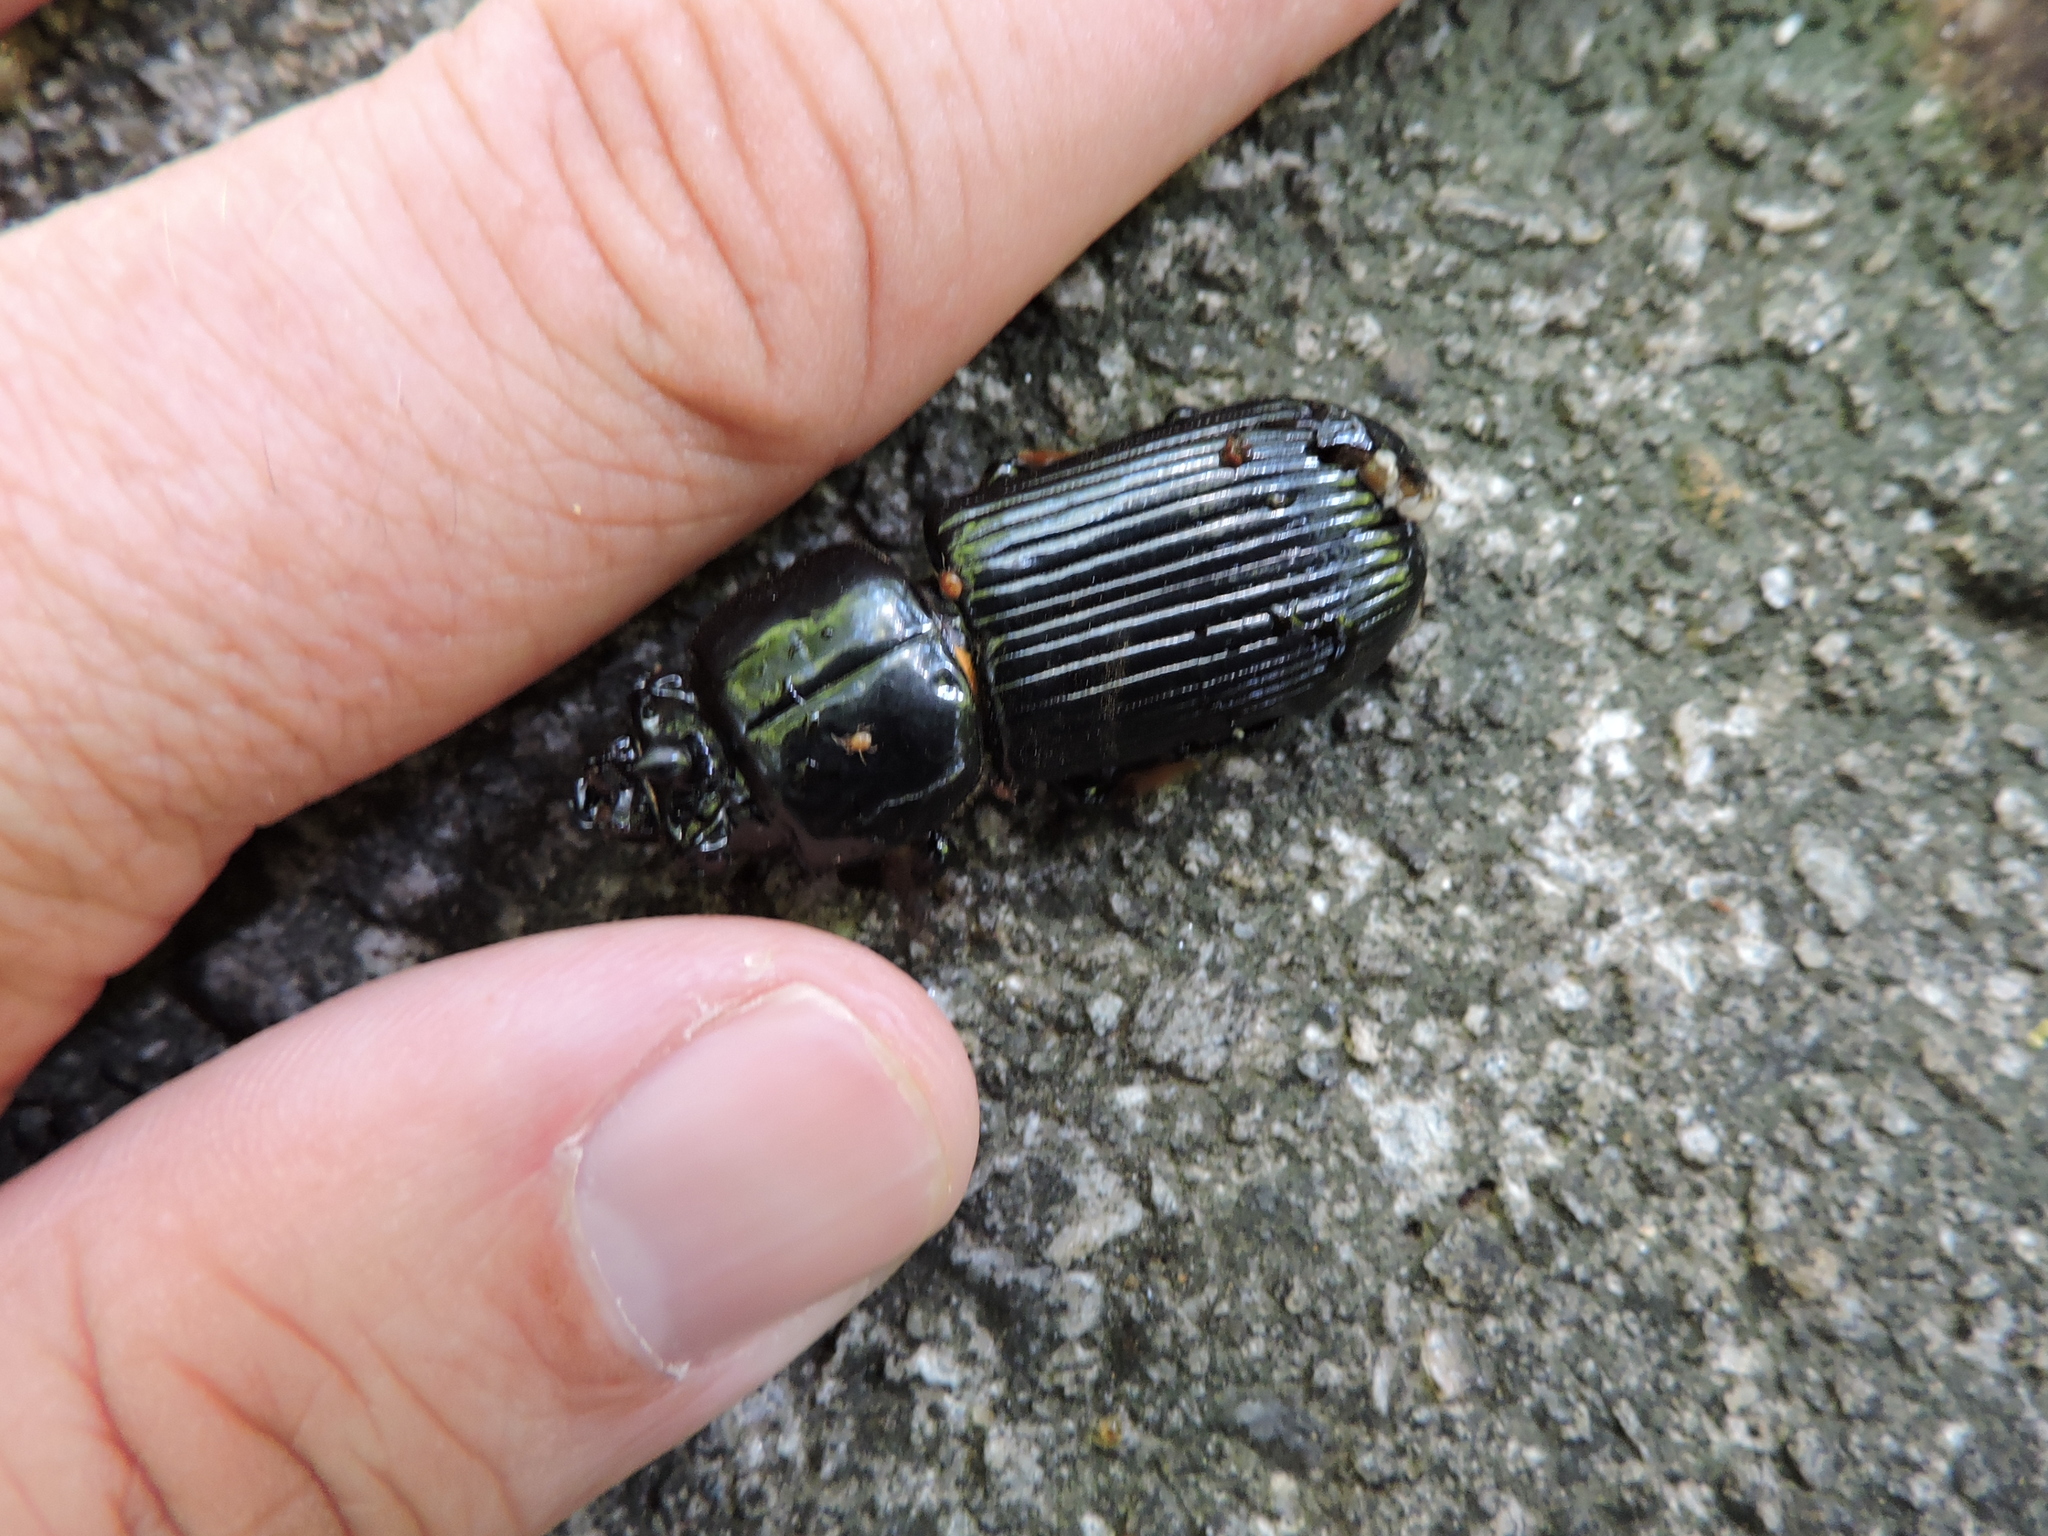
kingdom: Animalia
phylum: Arthropoda
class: Insecta
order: Coleoptera
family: Passalidae
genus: Odontotaenius
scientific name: Odontotaenius disjunctus
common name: Patent leather beetle
